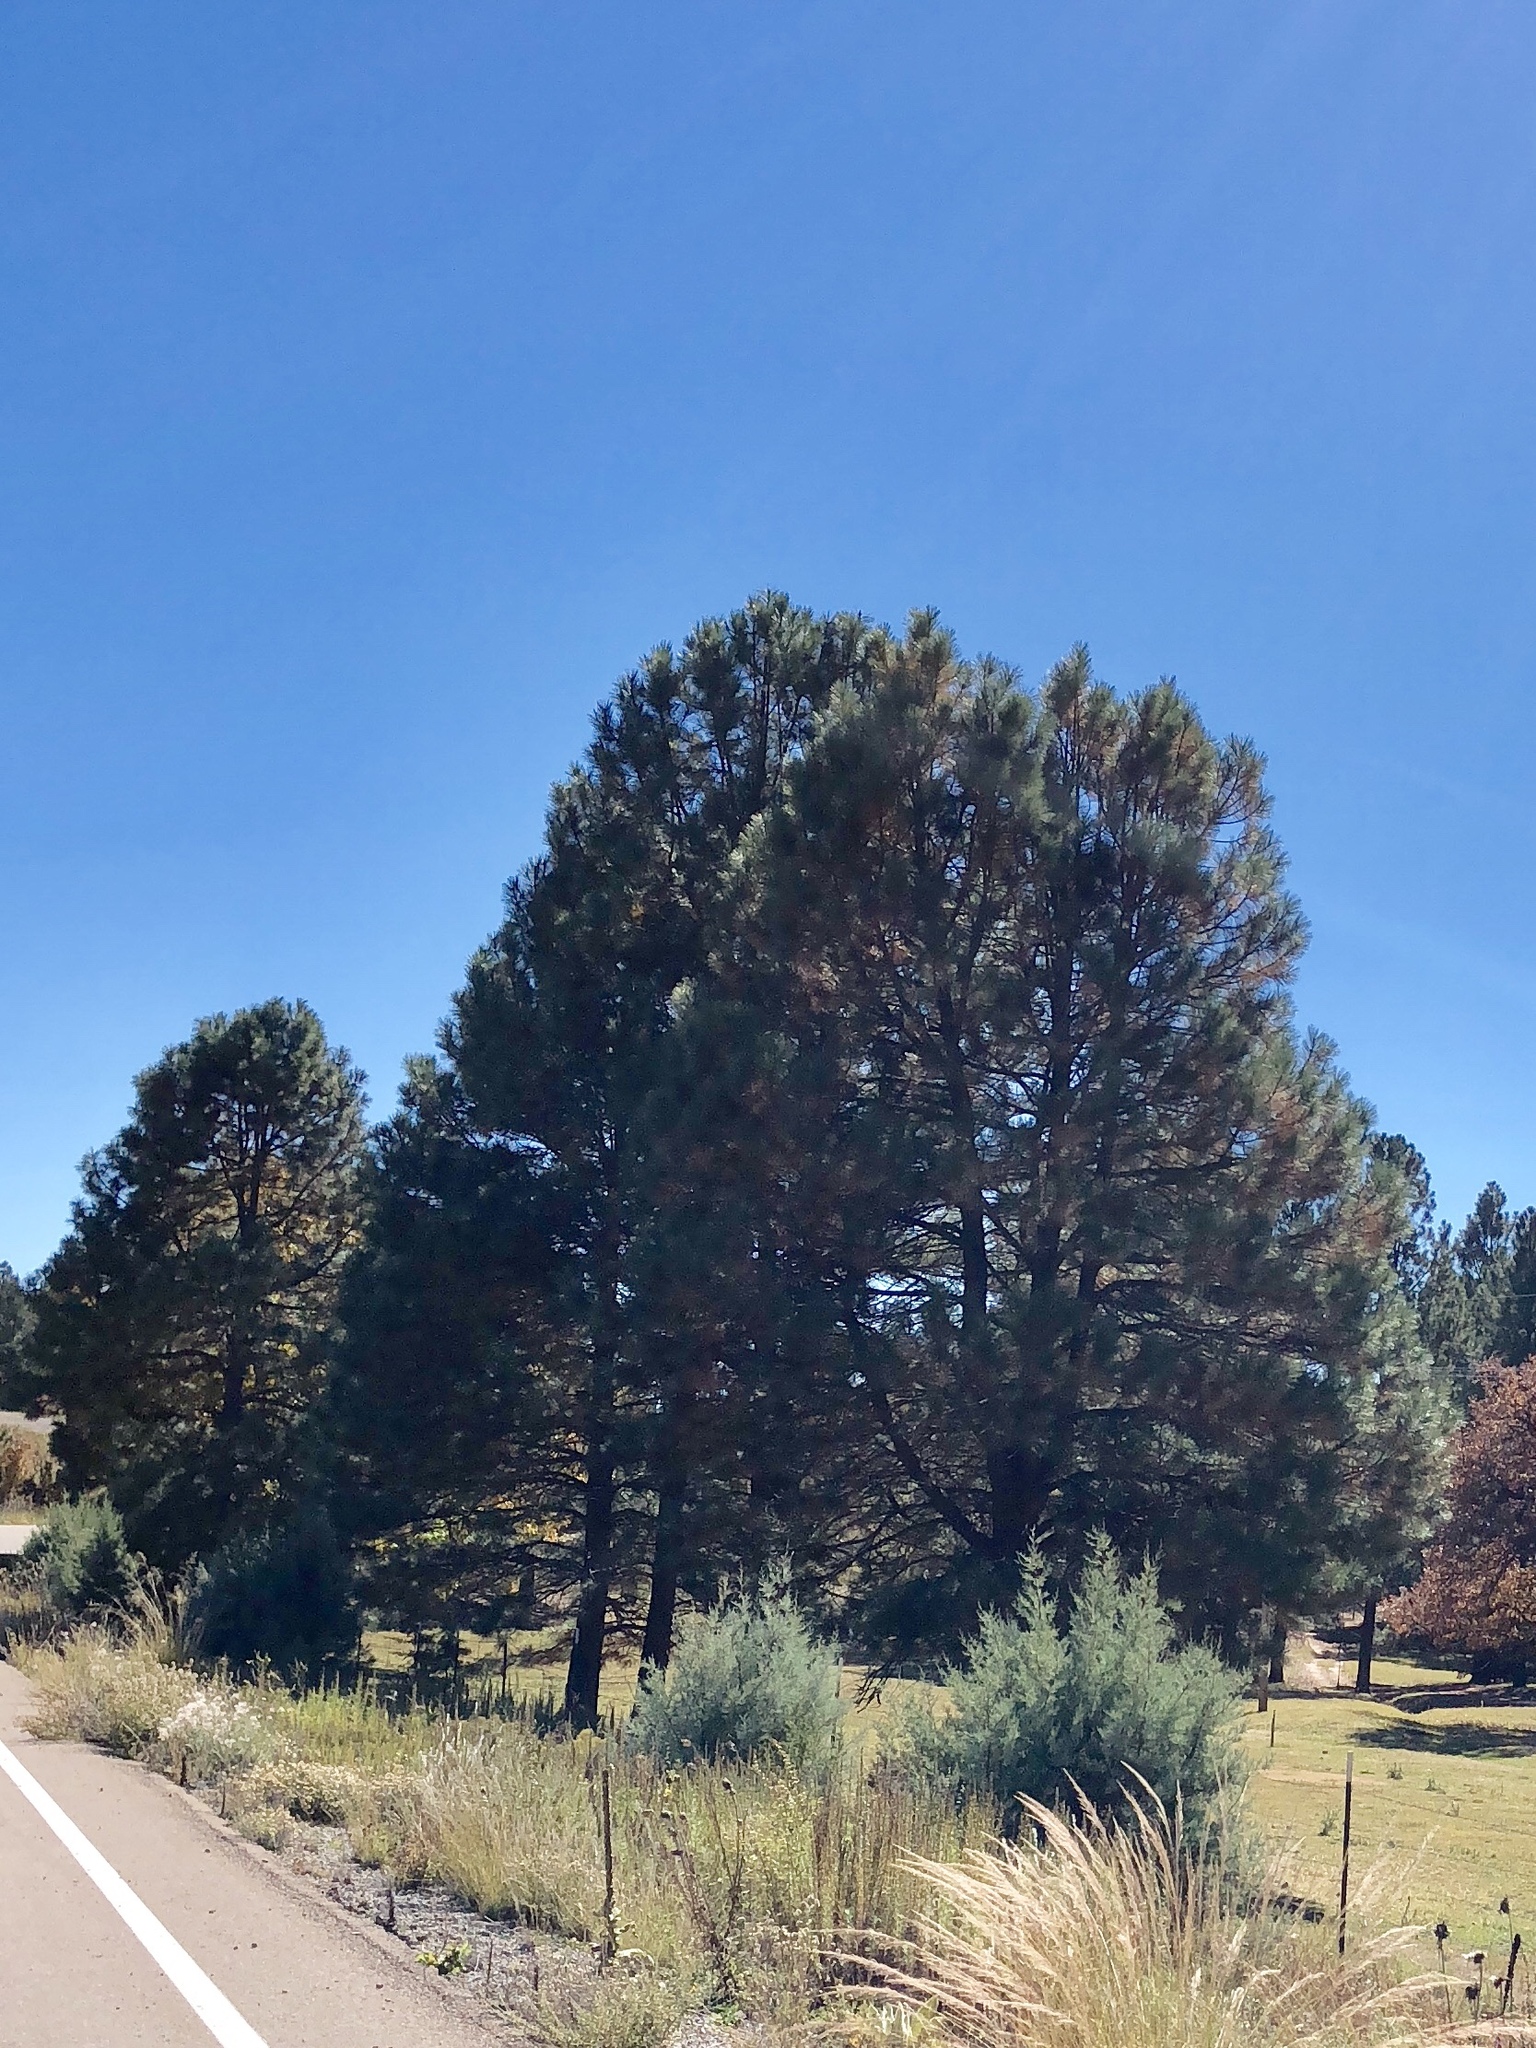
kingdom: Plantae
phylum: Tracheophyta
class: Pinopsida
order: Pinales
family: Pinaceae
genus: Pinus
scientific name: Pinus ponderosa
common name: Western yellow-pine
